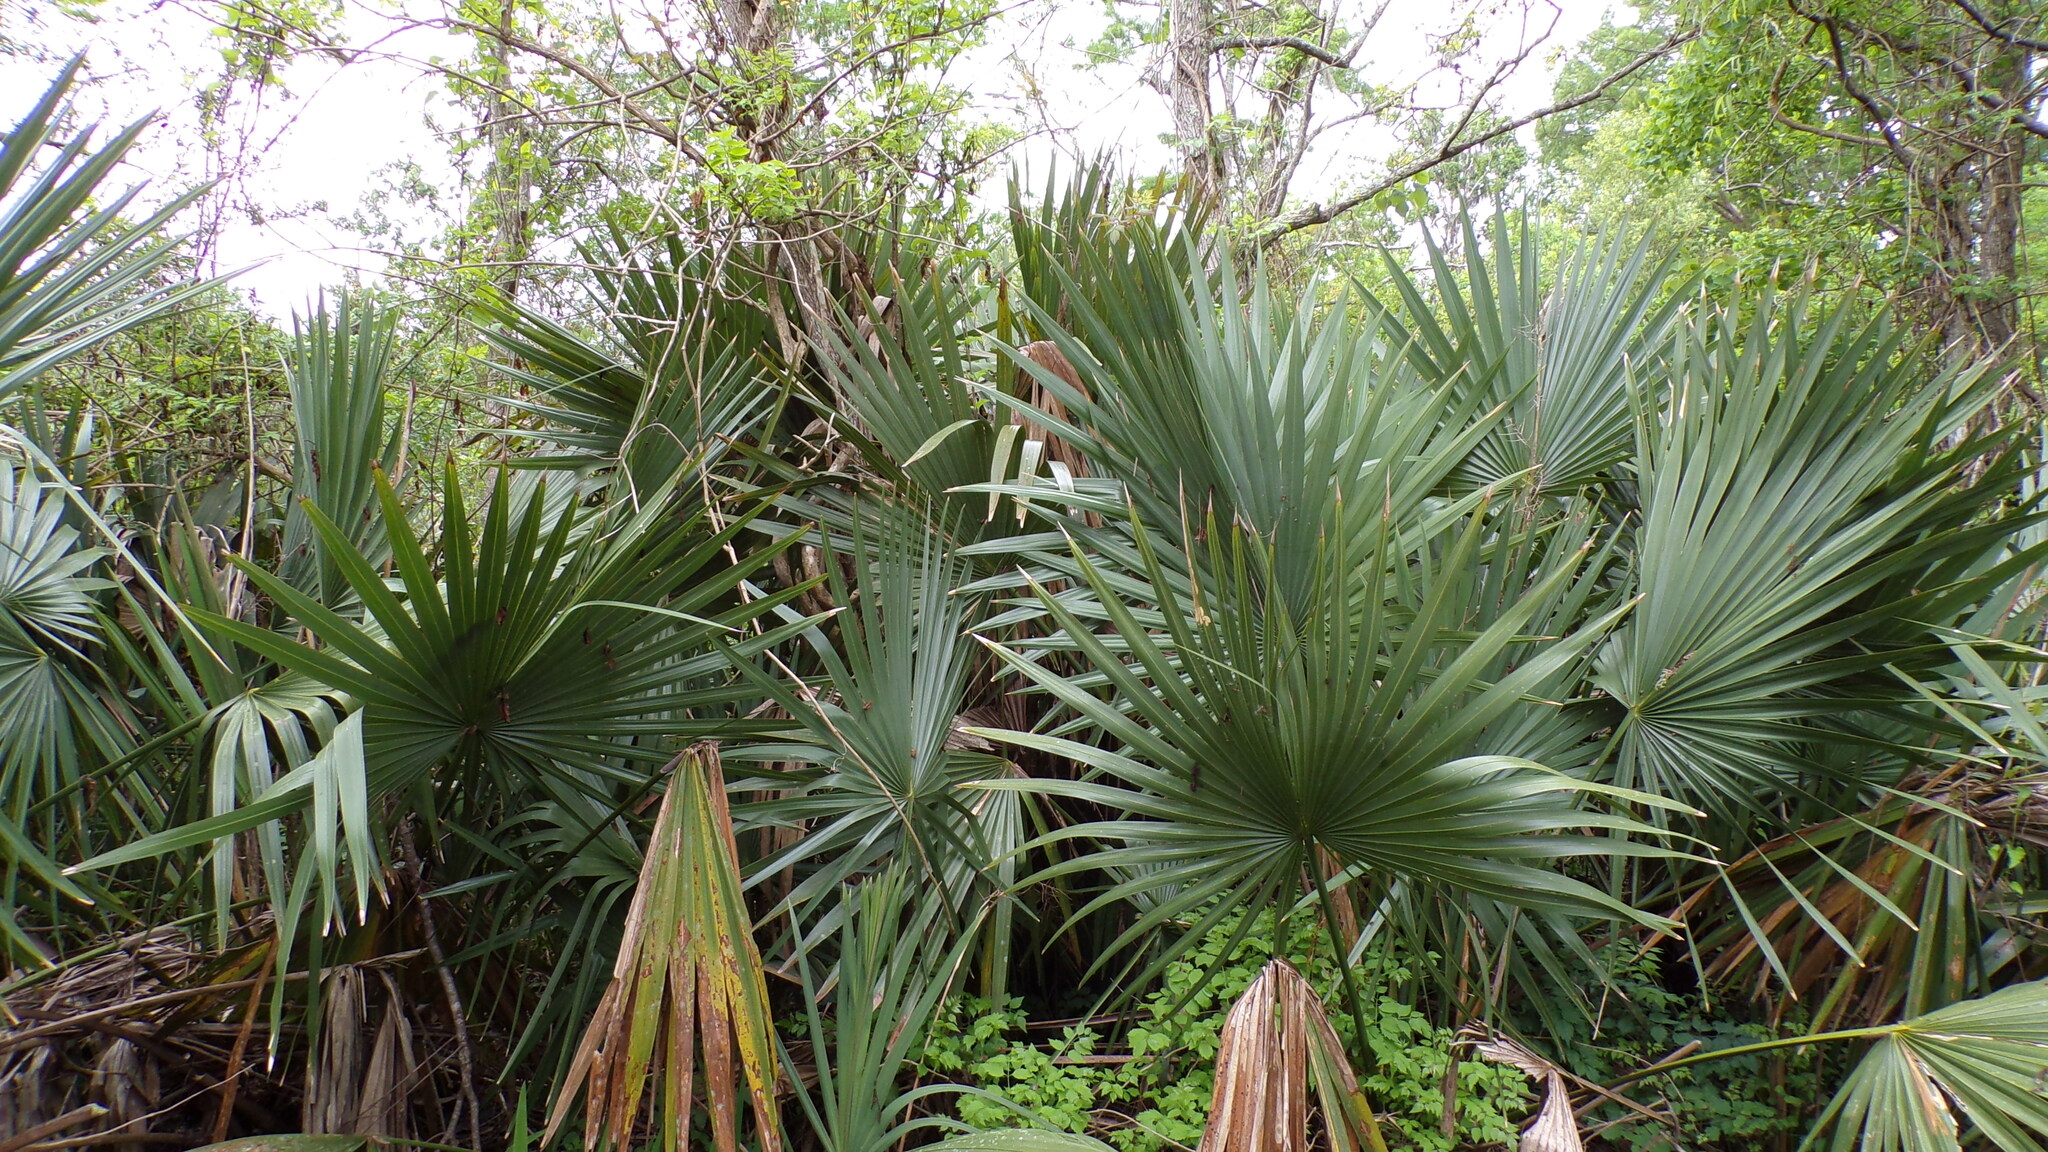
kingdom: Plantae
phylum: Tracheophyta
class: Liliopsida
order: Arecales
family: Arecaceae
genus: Sabal
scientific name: Sabal minor
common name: Dwarf palmetto
